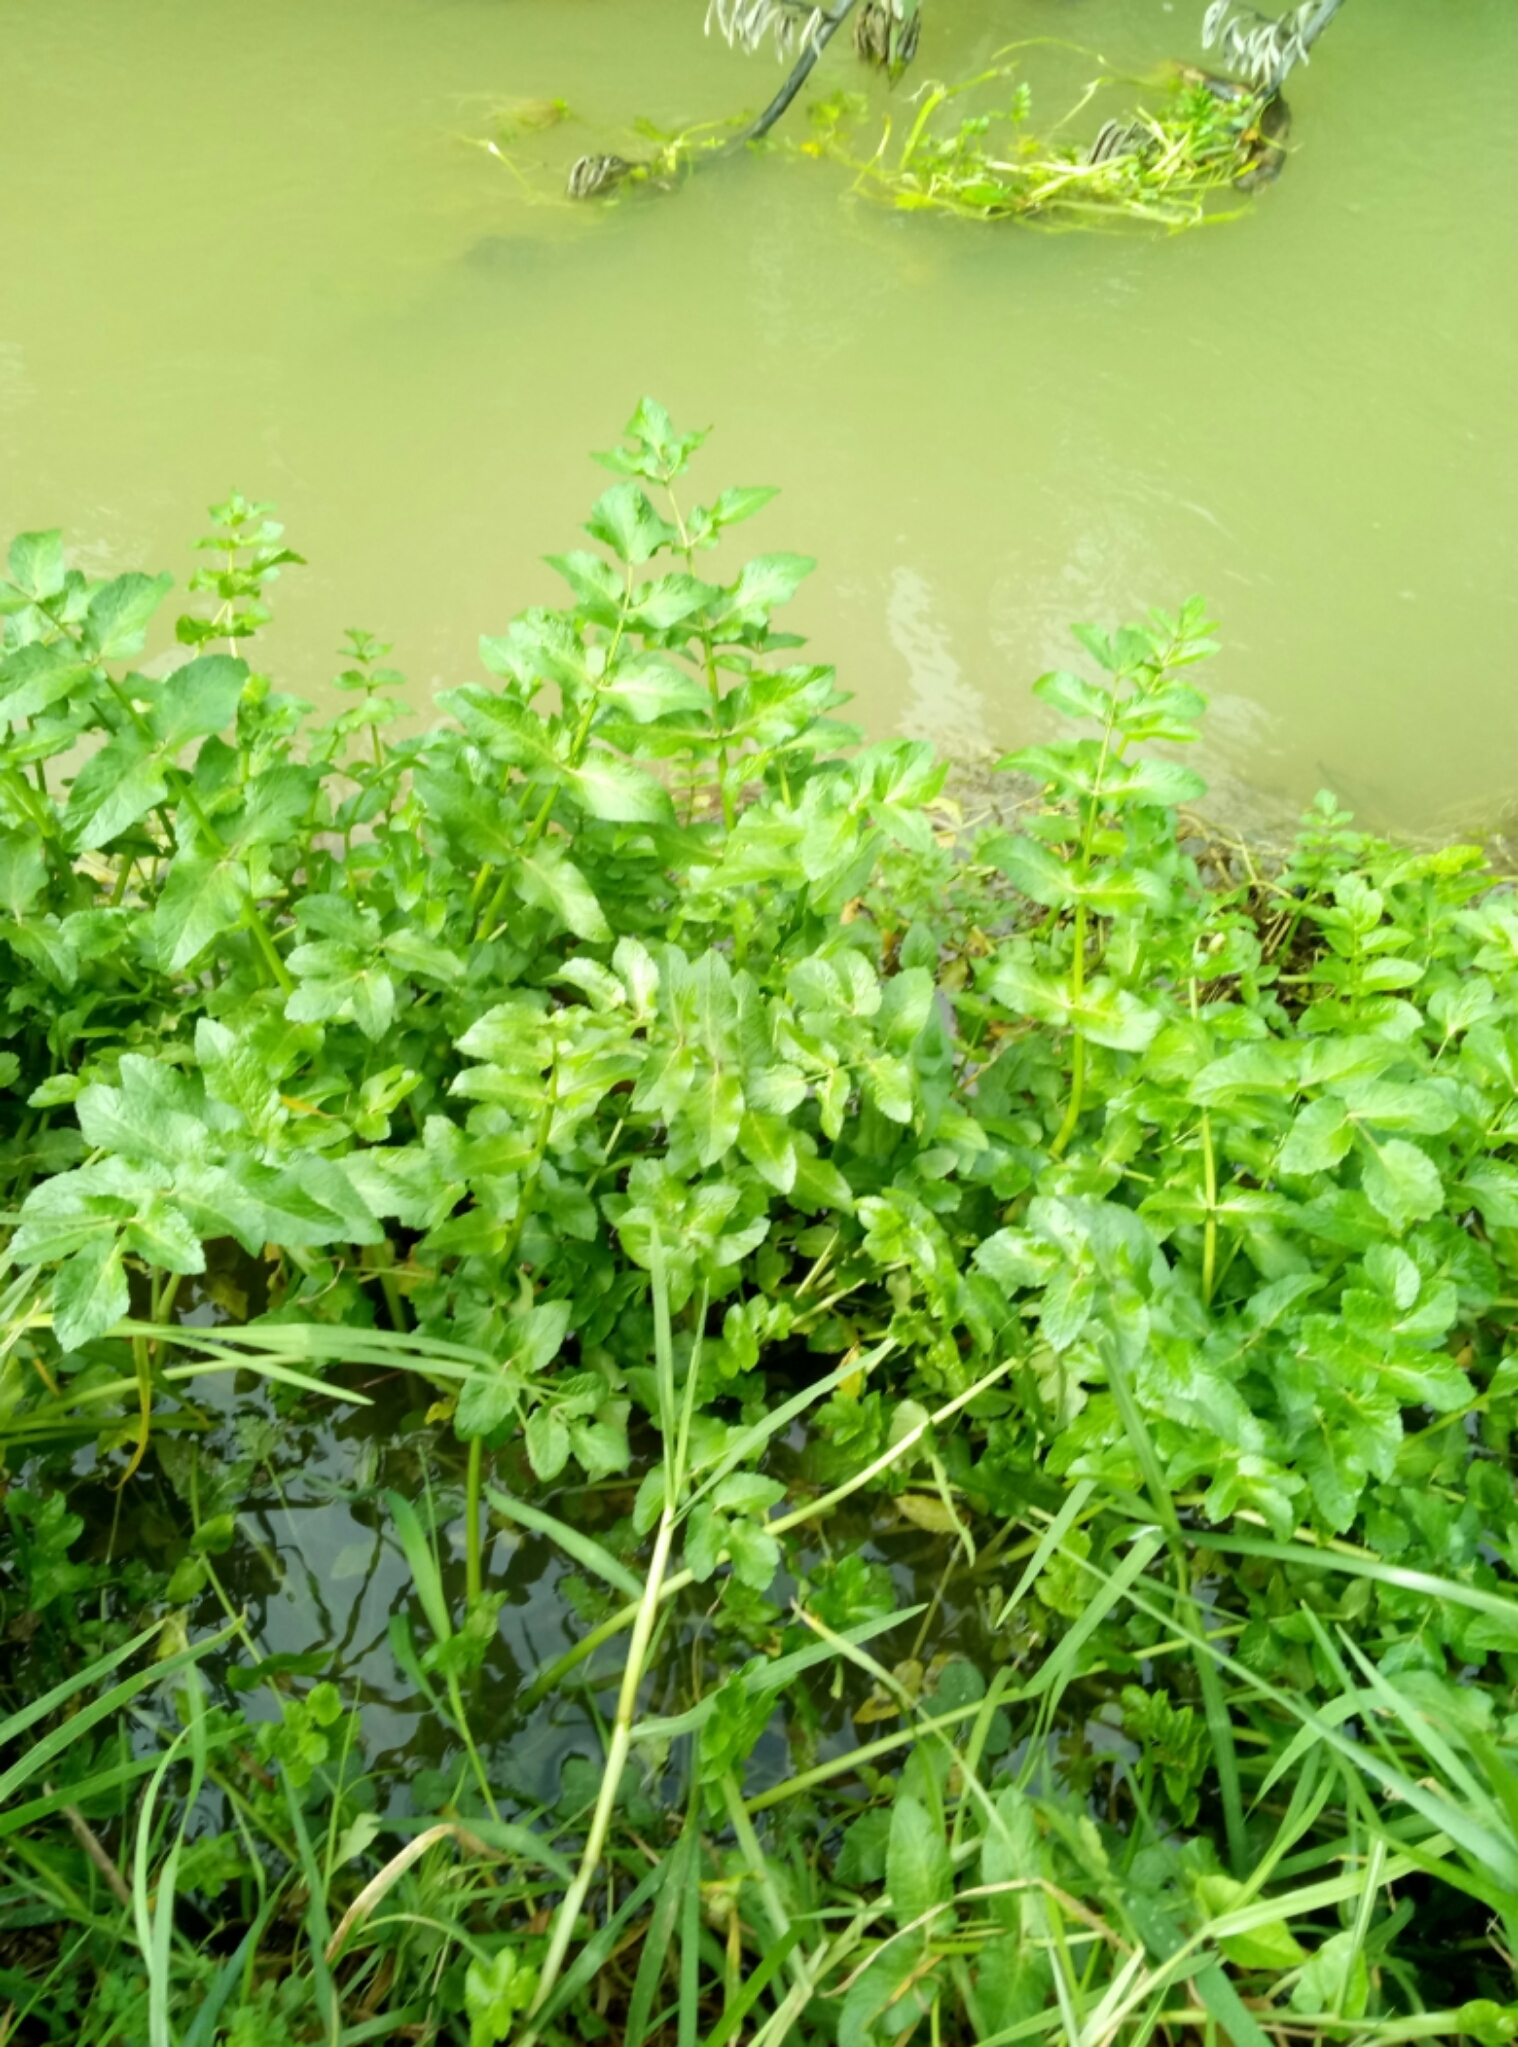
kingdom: Plantae
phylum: Tracheophyta
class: Magnoliopsida
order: Apiales
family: Apiaceae
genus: Helosciadium
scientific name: Helosciadium nodiflorum
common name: Fool's-watercress
